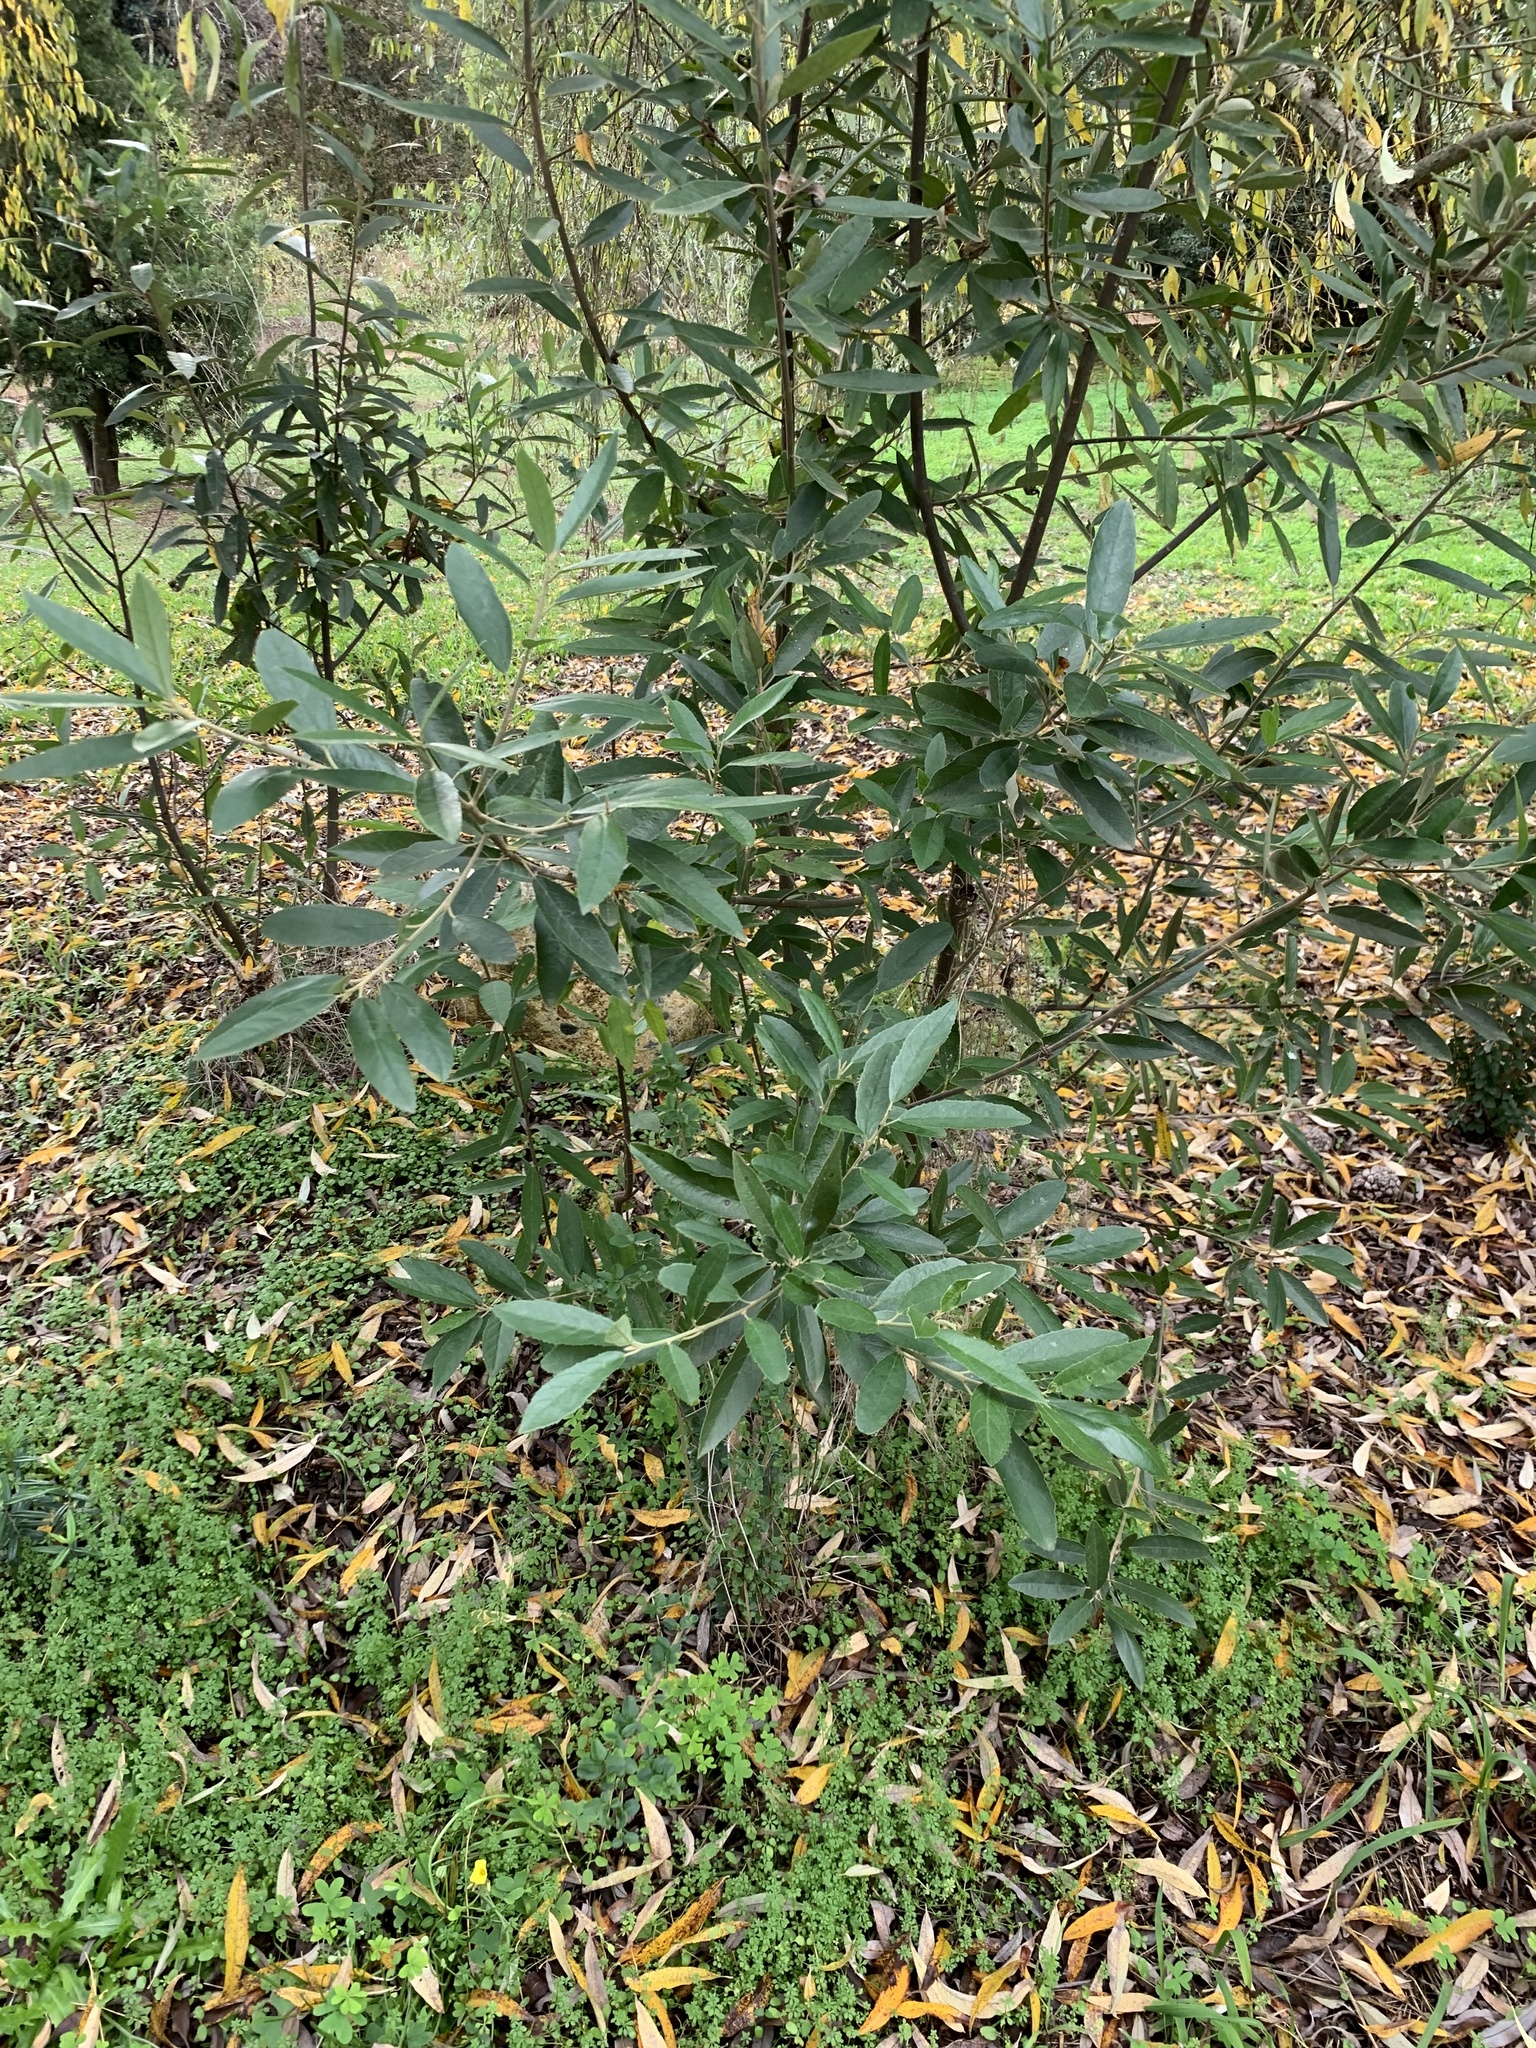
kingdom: Plantae
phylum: Tracheophyta
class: Magnoliopsida
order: Malpighiales
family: Achariaceae
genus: Kiggelaria
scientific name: Kiggelaria africana
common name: Wild peach
